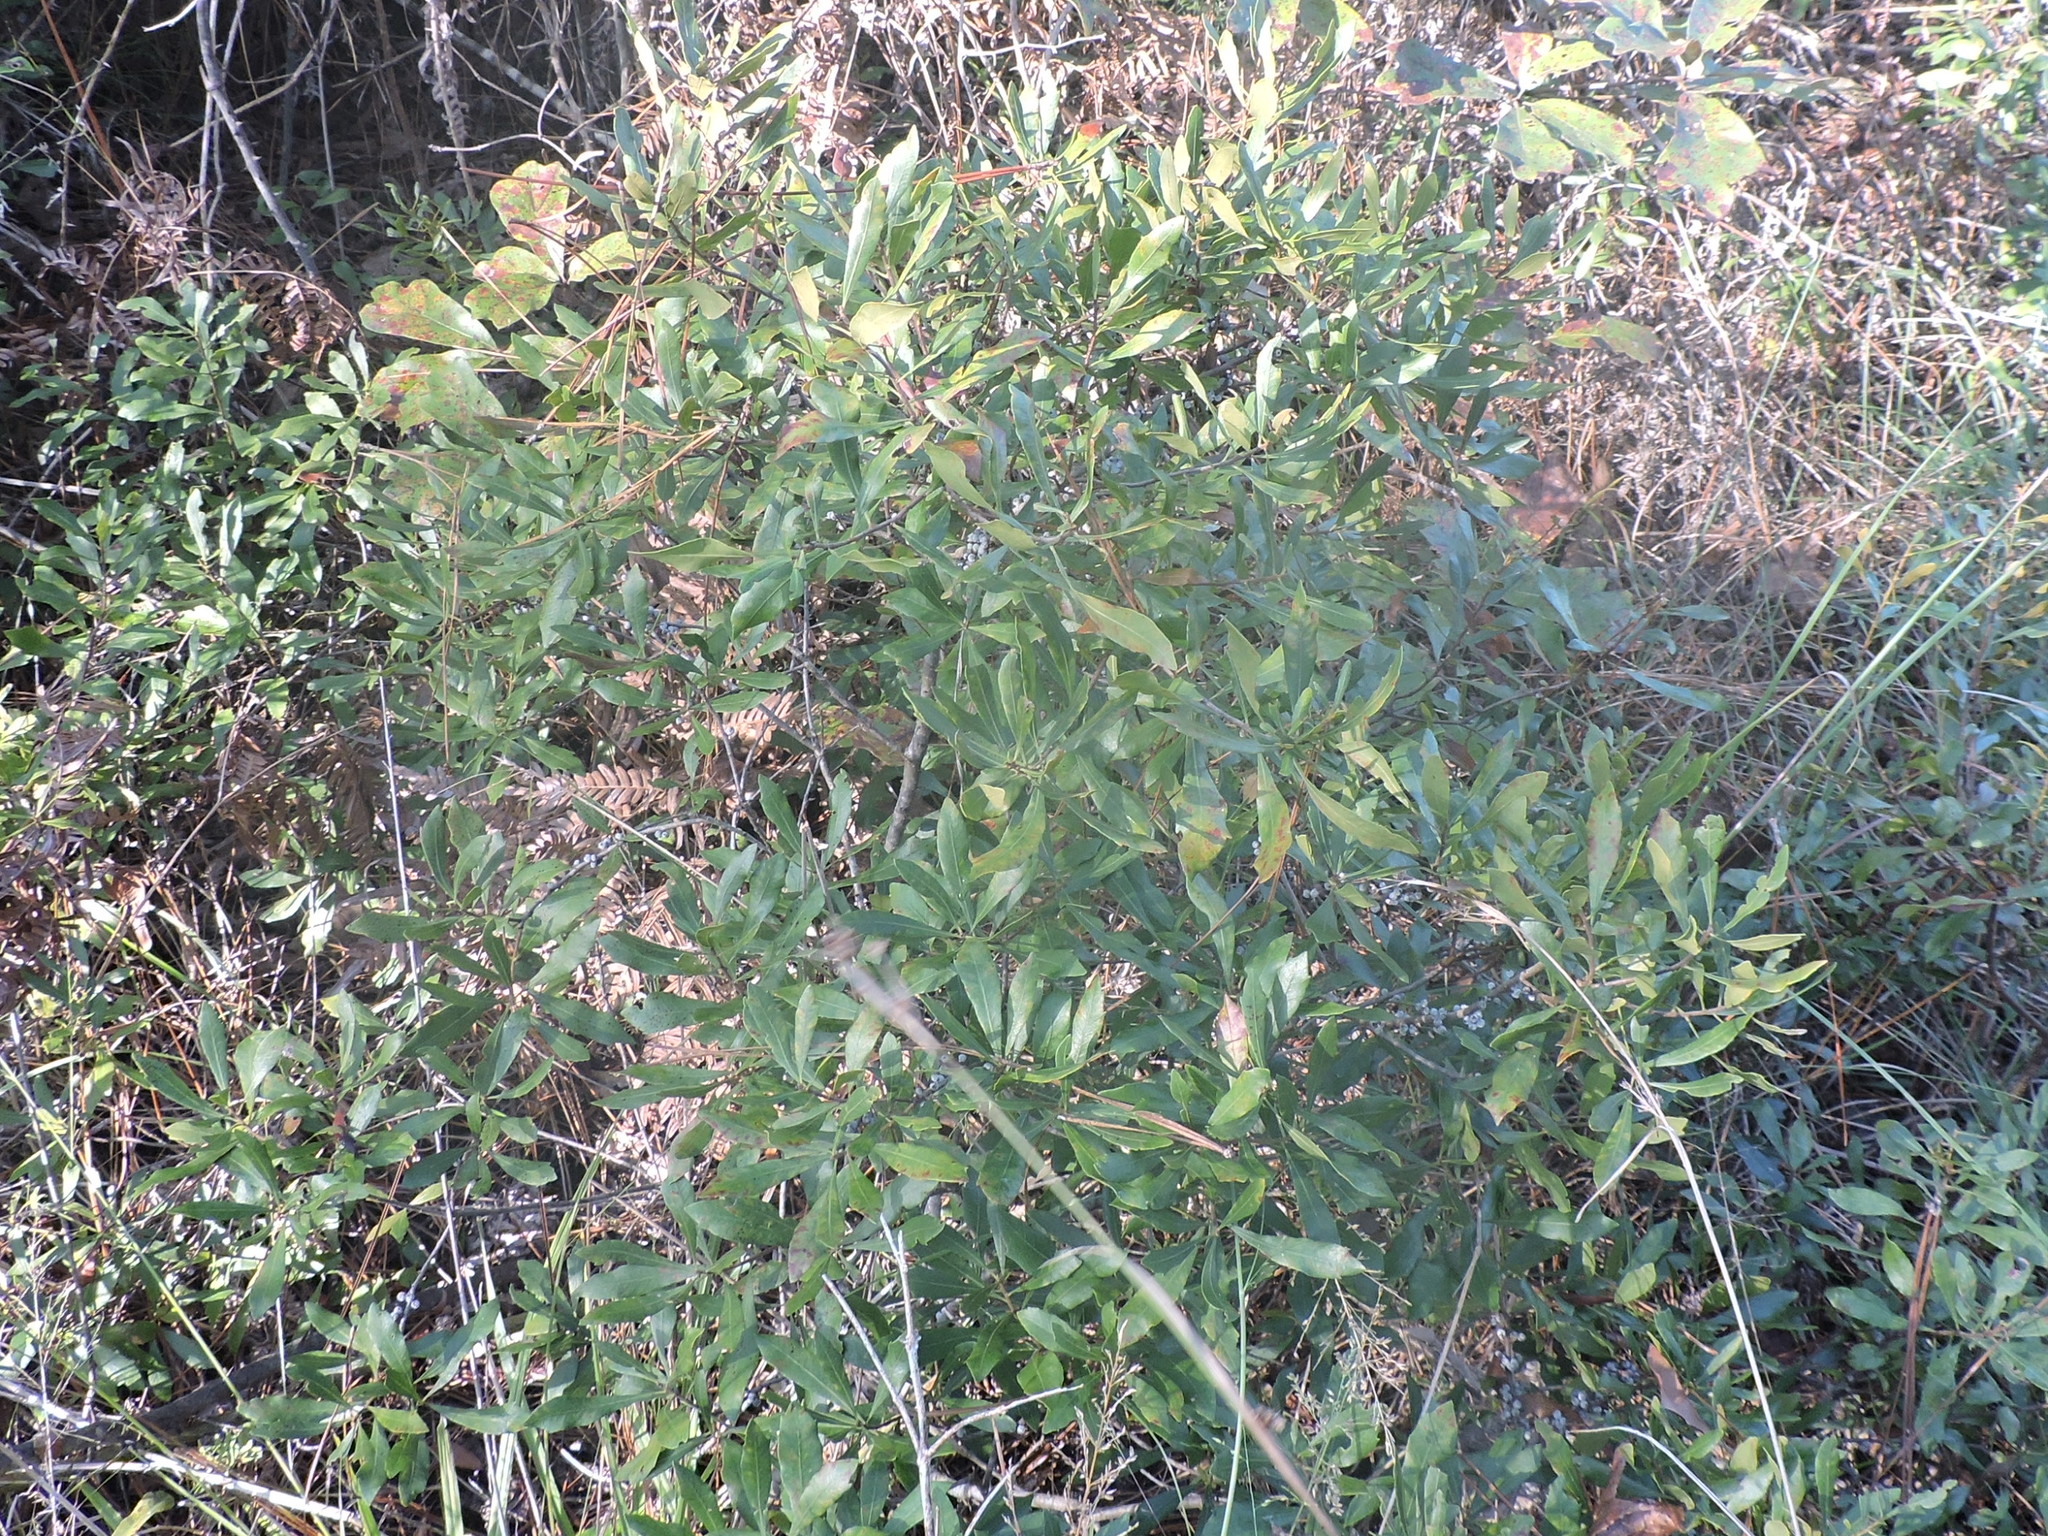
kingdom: Plantae
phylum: Tracheophyta
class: Magnoliopsida
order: Fagales
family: Myricaceae
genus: Morella
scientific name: Morella cerifera
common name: Wax myrtle
